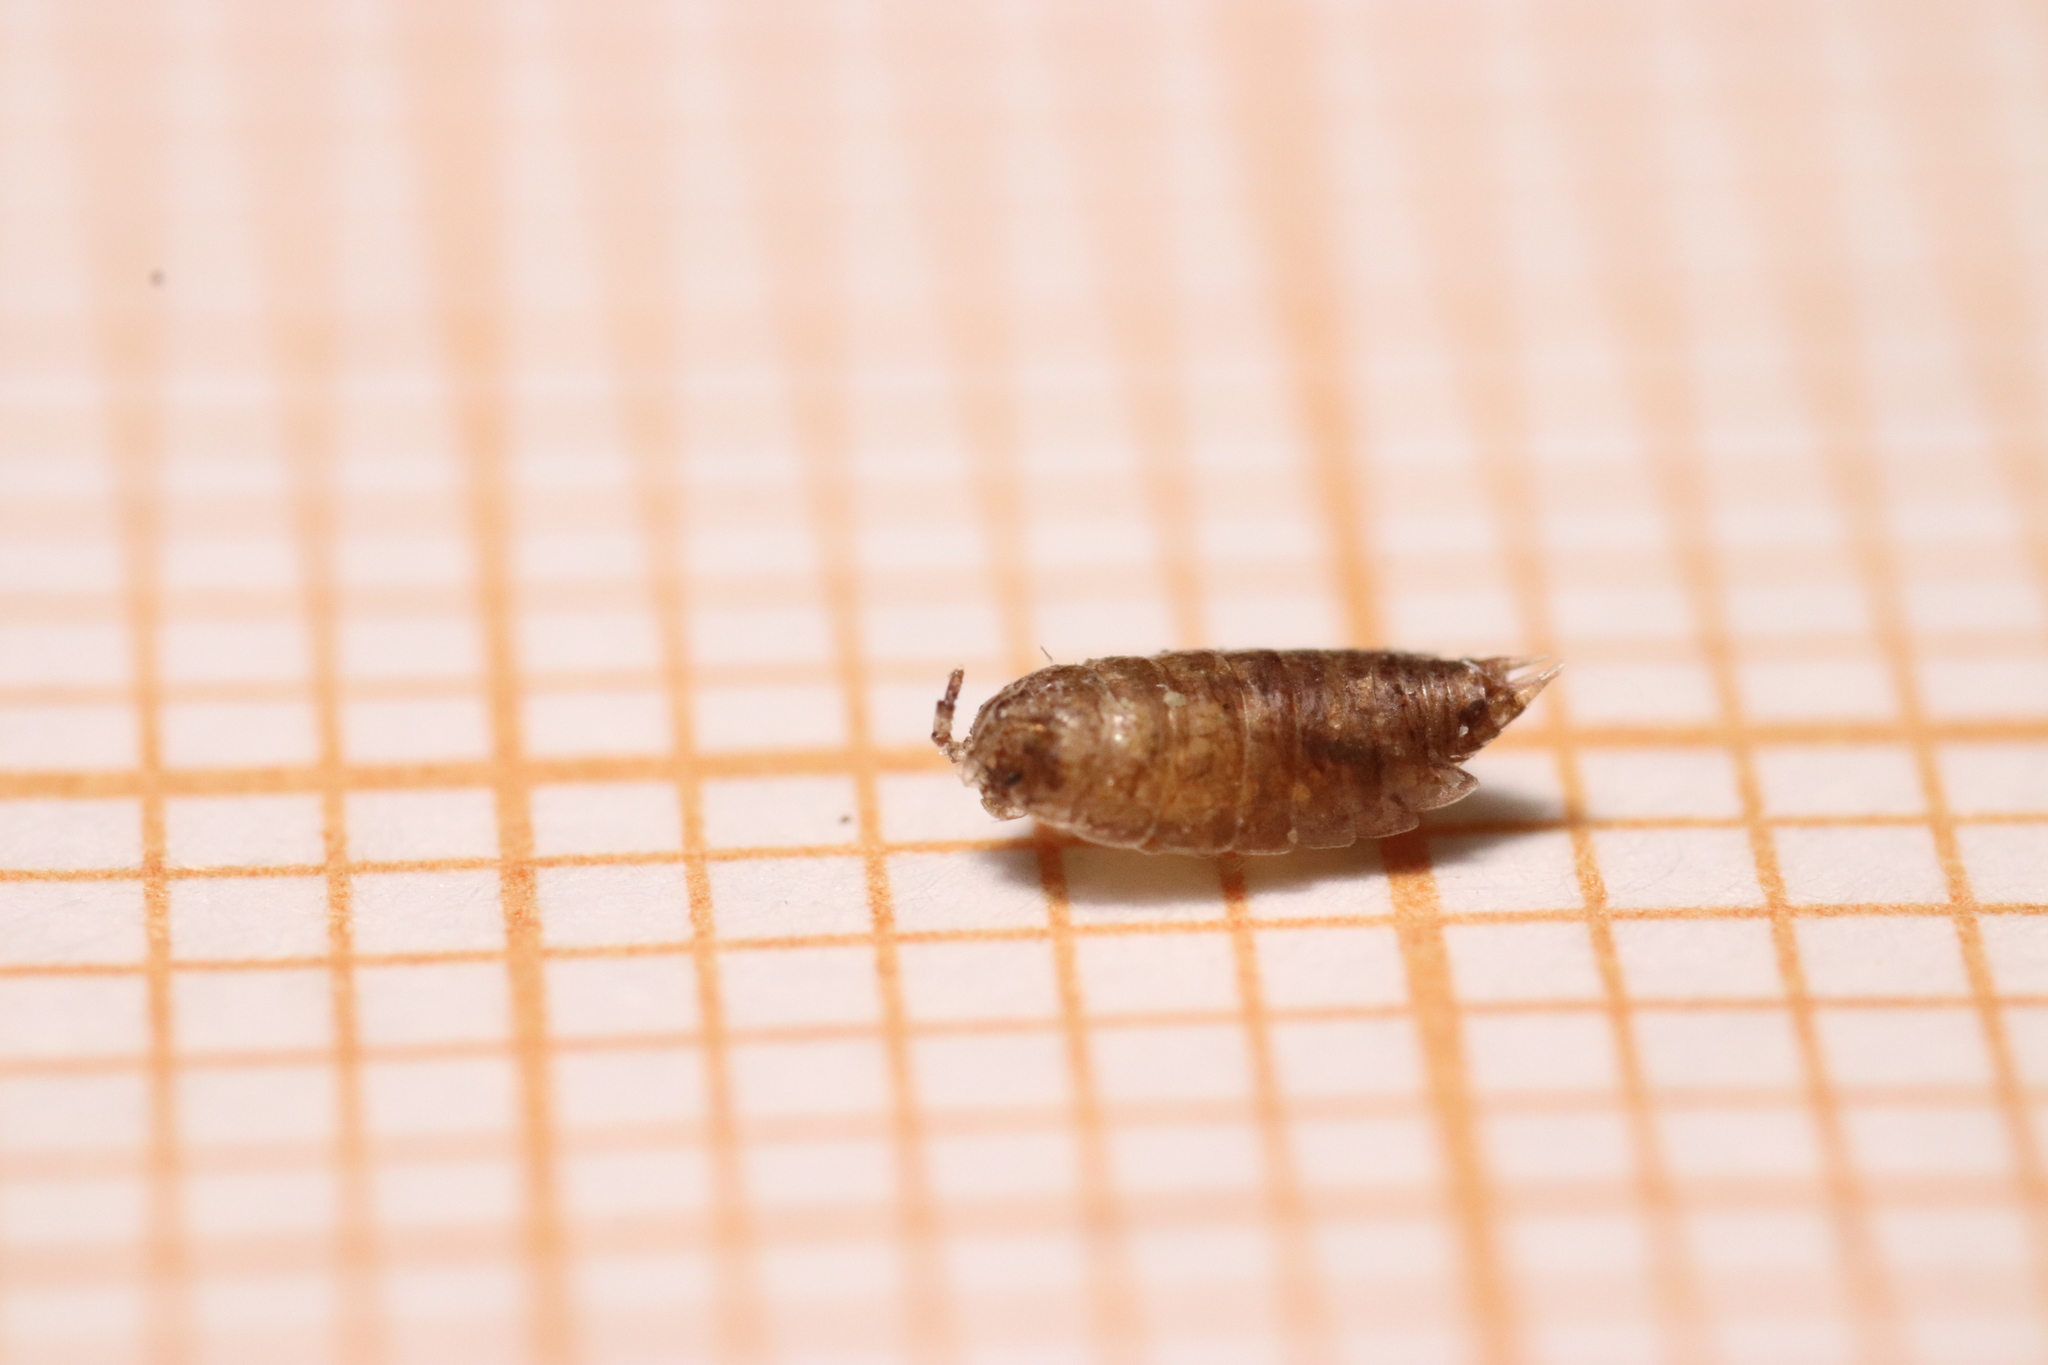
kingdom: Animalia
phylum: Arthropoda
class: Malacostraca
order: Isopoda
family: Trichoniscidae
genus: Trichoniscus
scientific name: Trichoniscus
